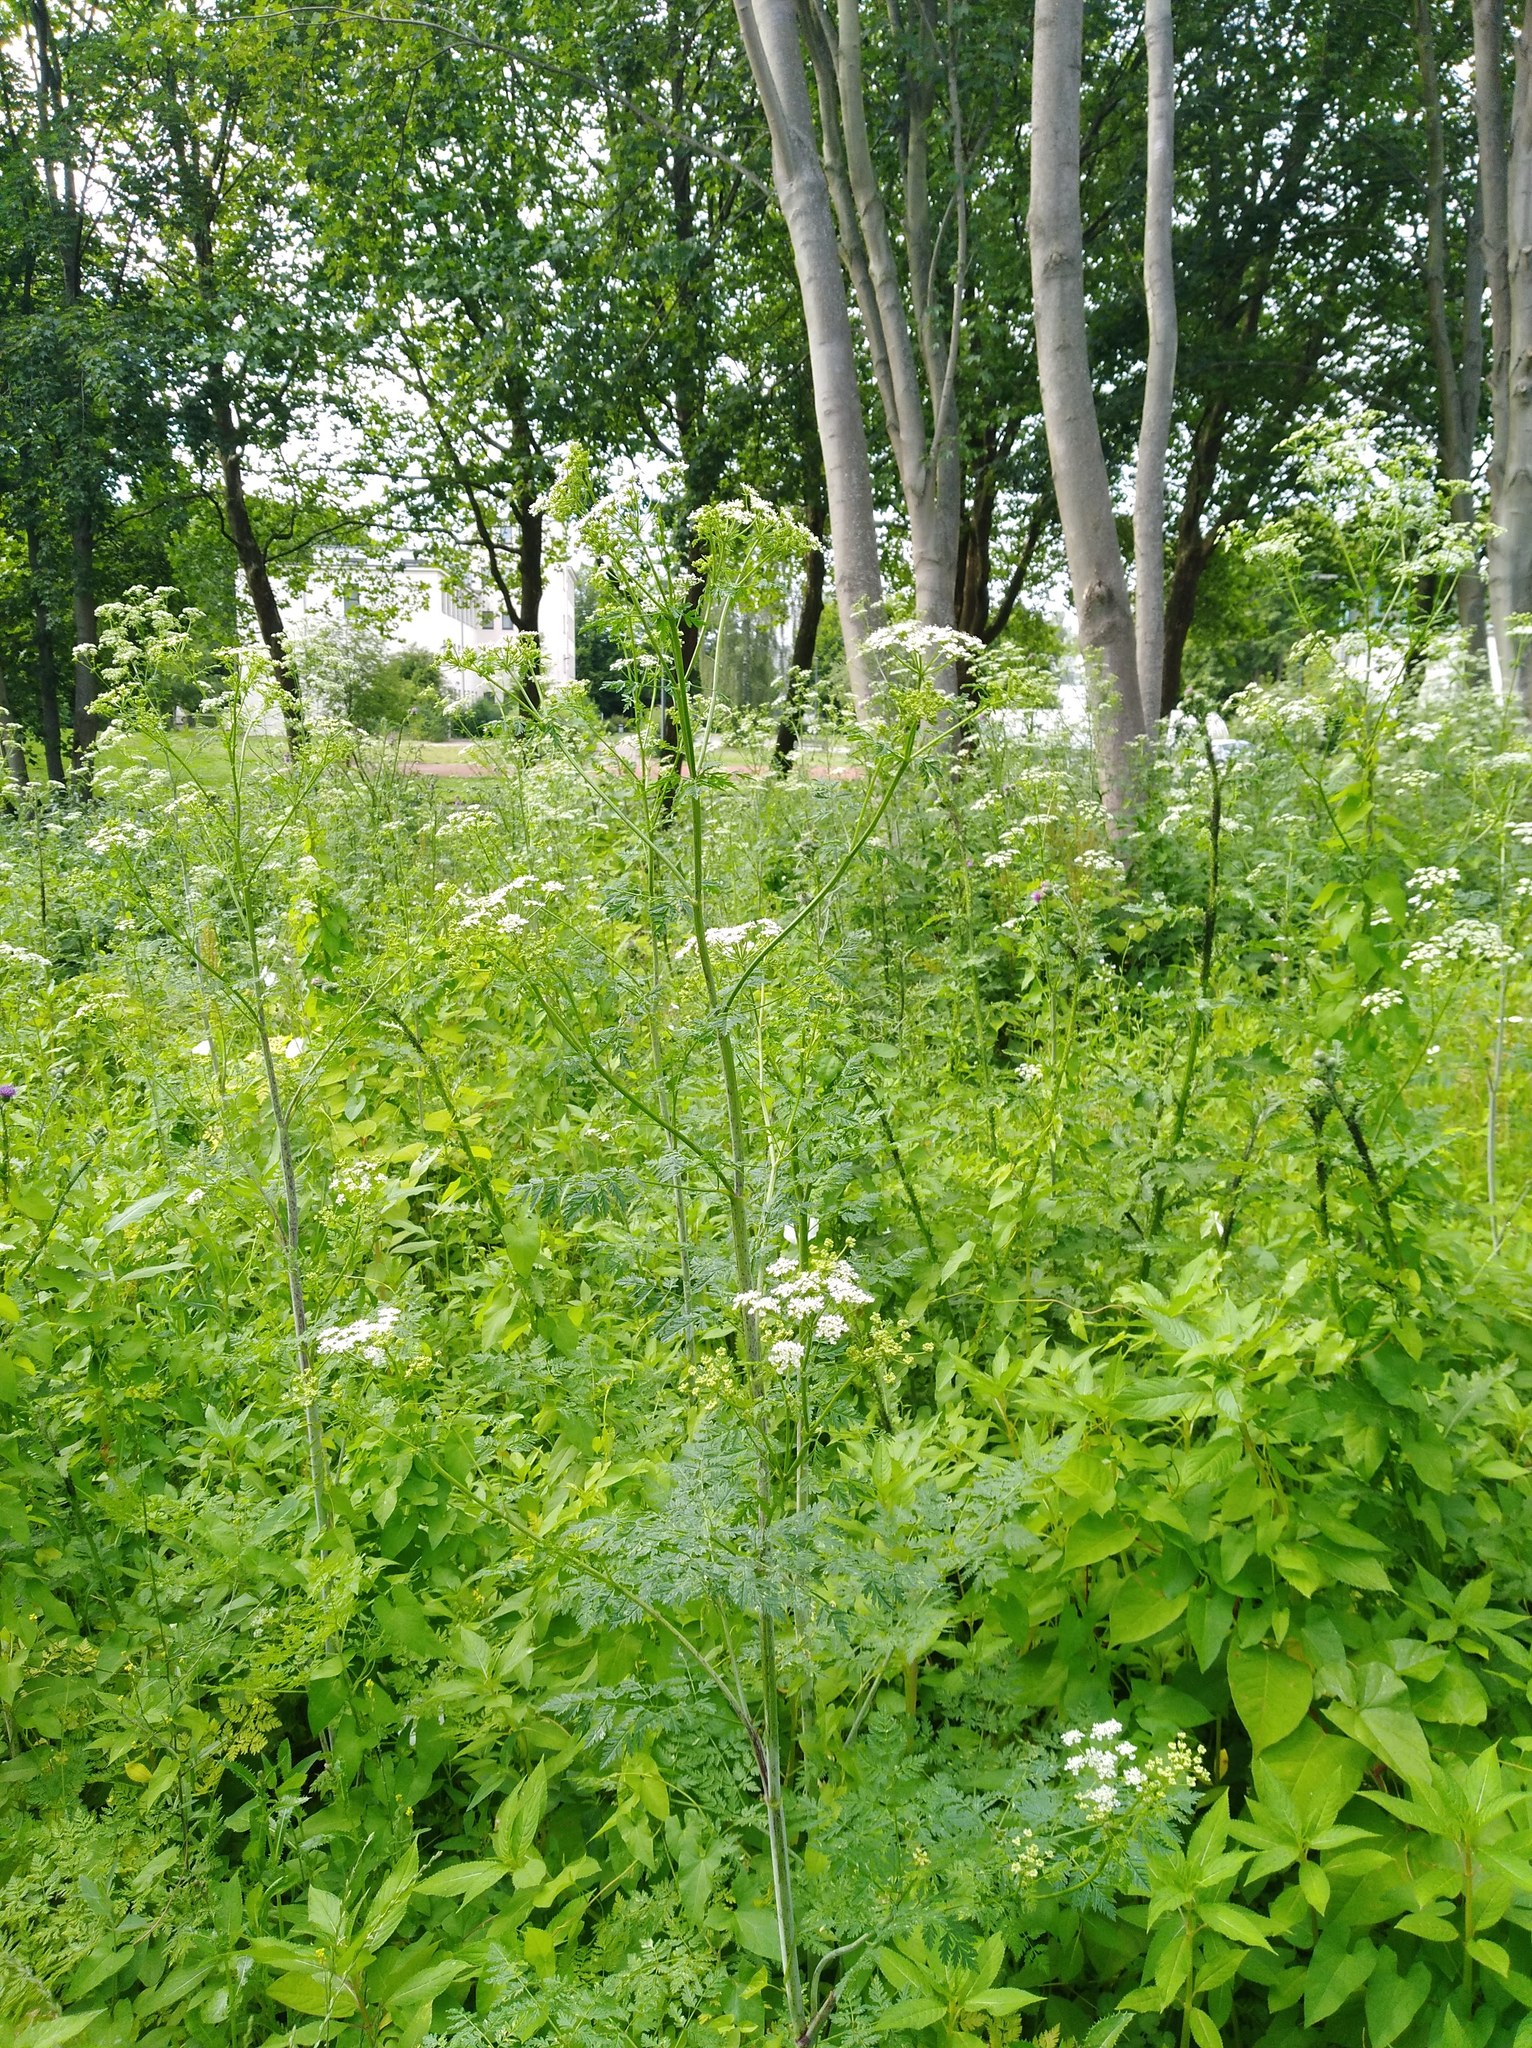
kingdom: Plantae
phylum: Tracheophyta
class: Magnoliopsida
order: Apiales
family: Apiaceae
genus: Conium
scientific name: Conium maculatum
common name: Hemlock
